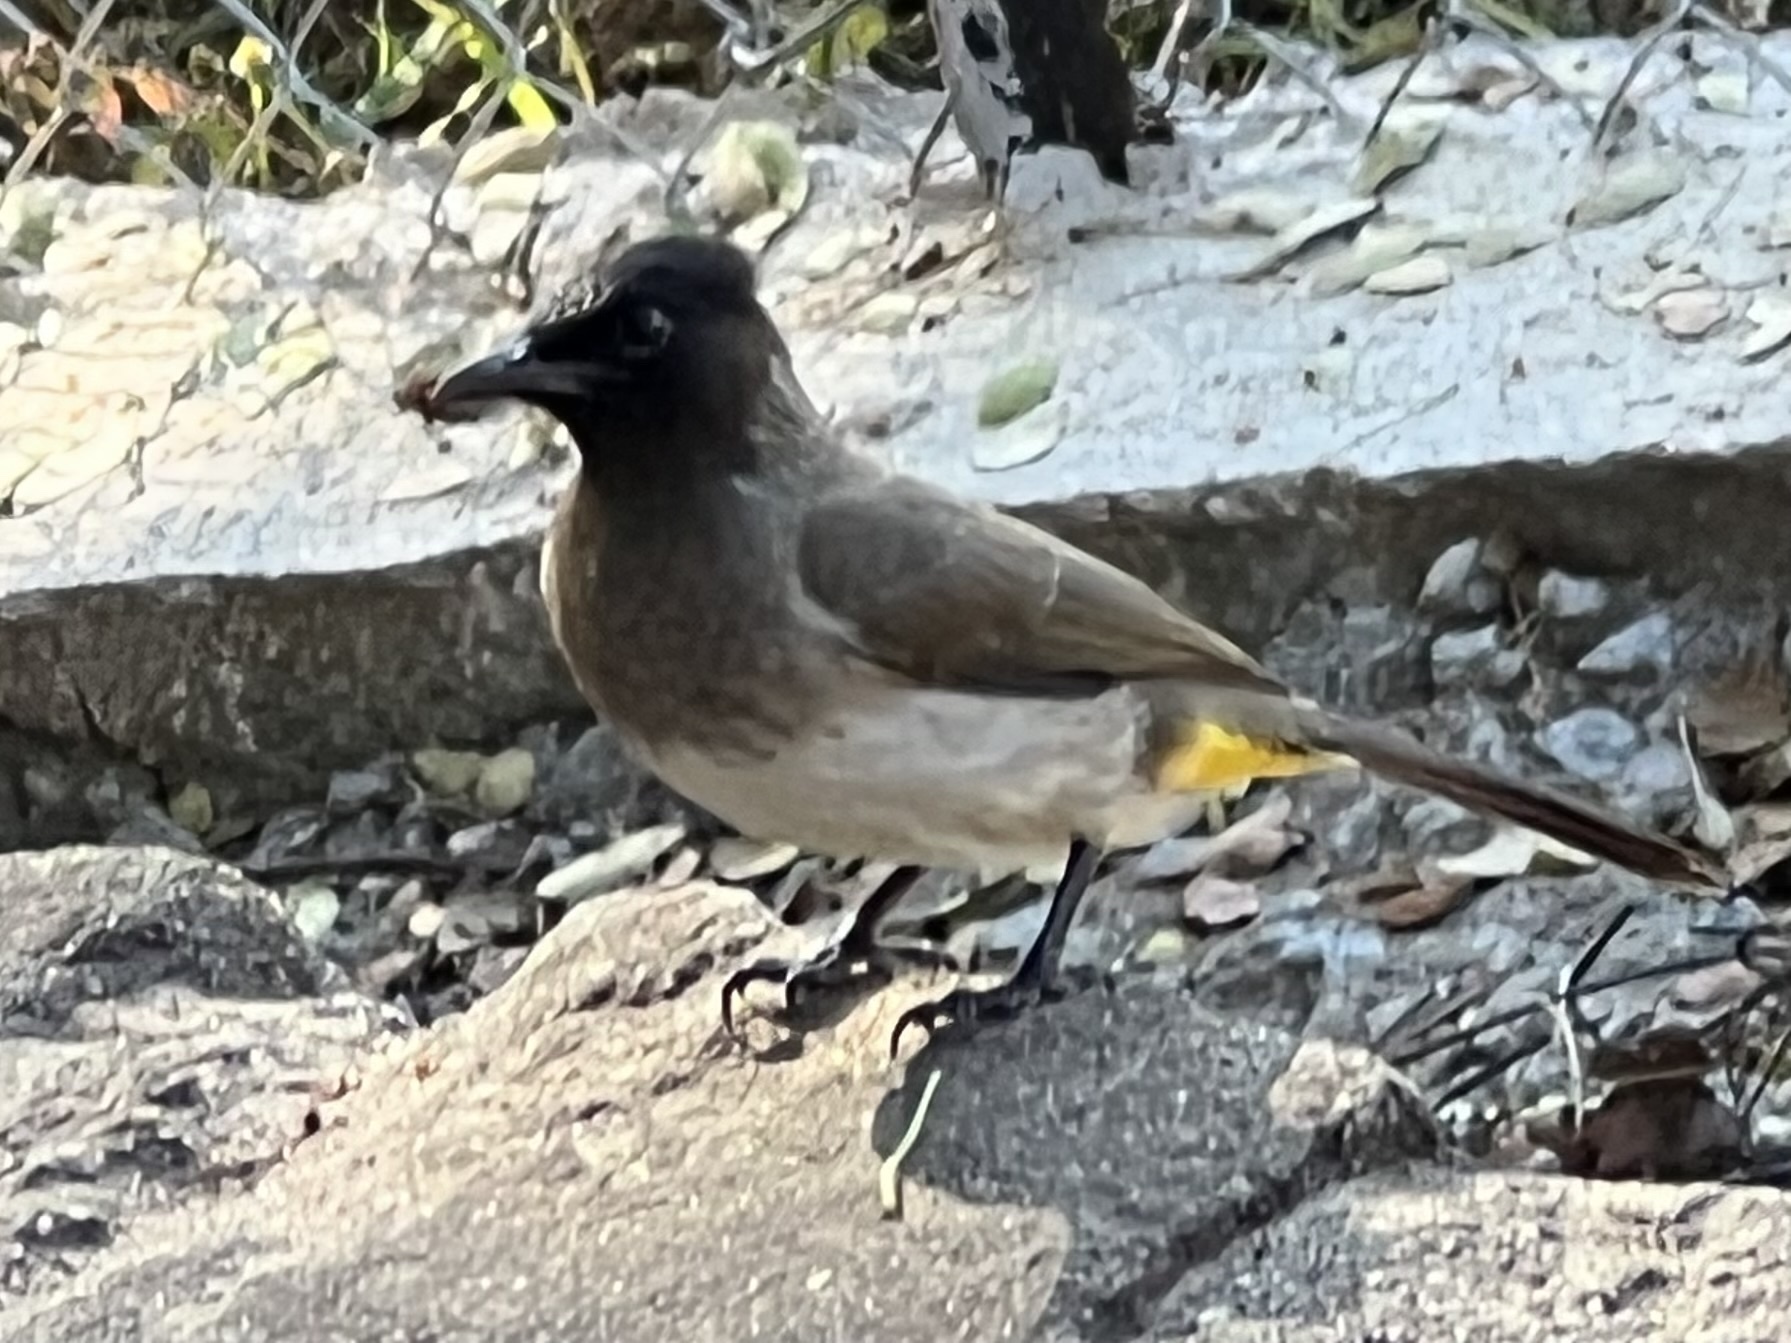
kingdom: Animalia
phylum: Chordata
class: Aves
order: Passeriformes
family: Pycnonotidae
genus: Pycnonotus
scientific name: Pycnonotus barbatus
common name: Common bulbul
